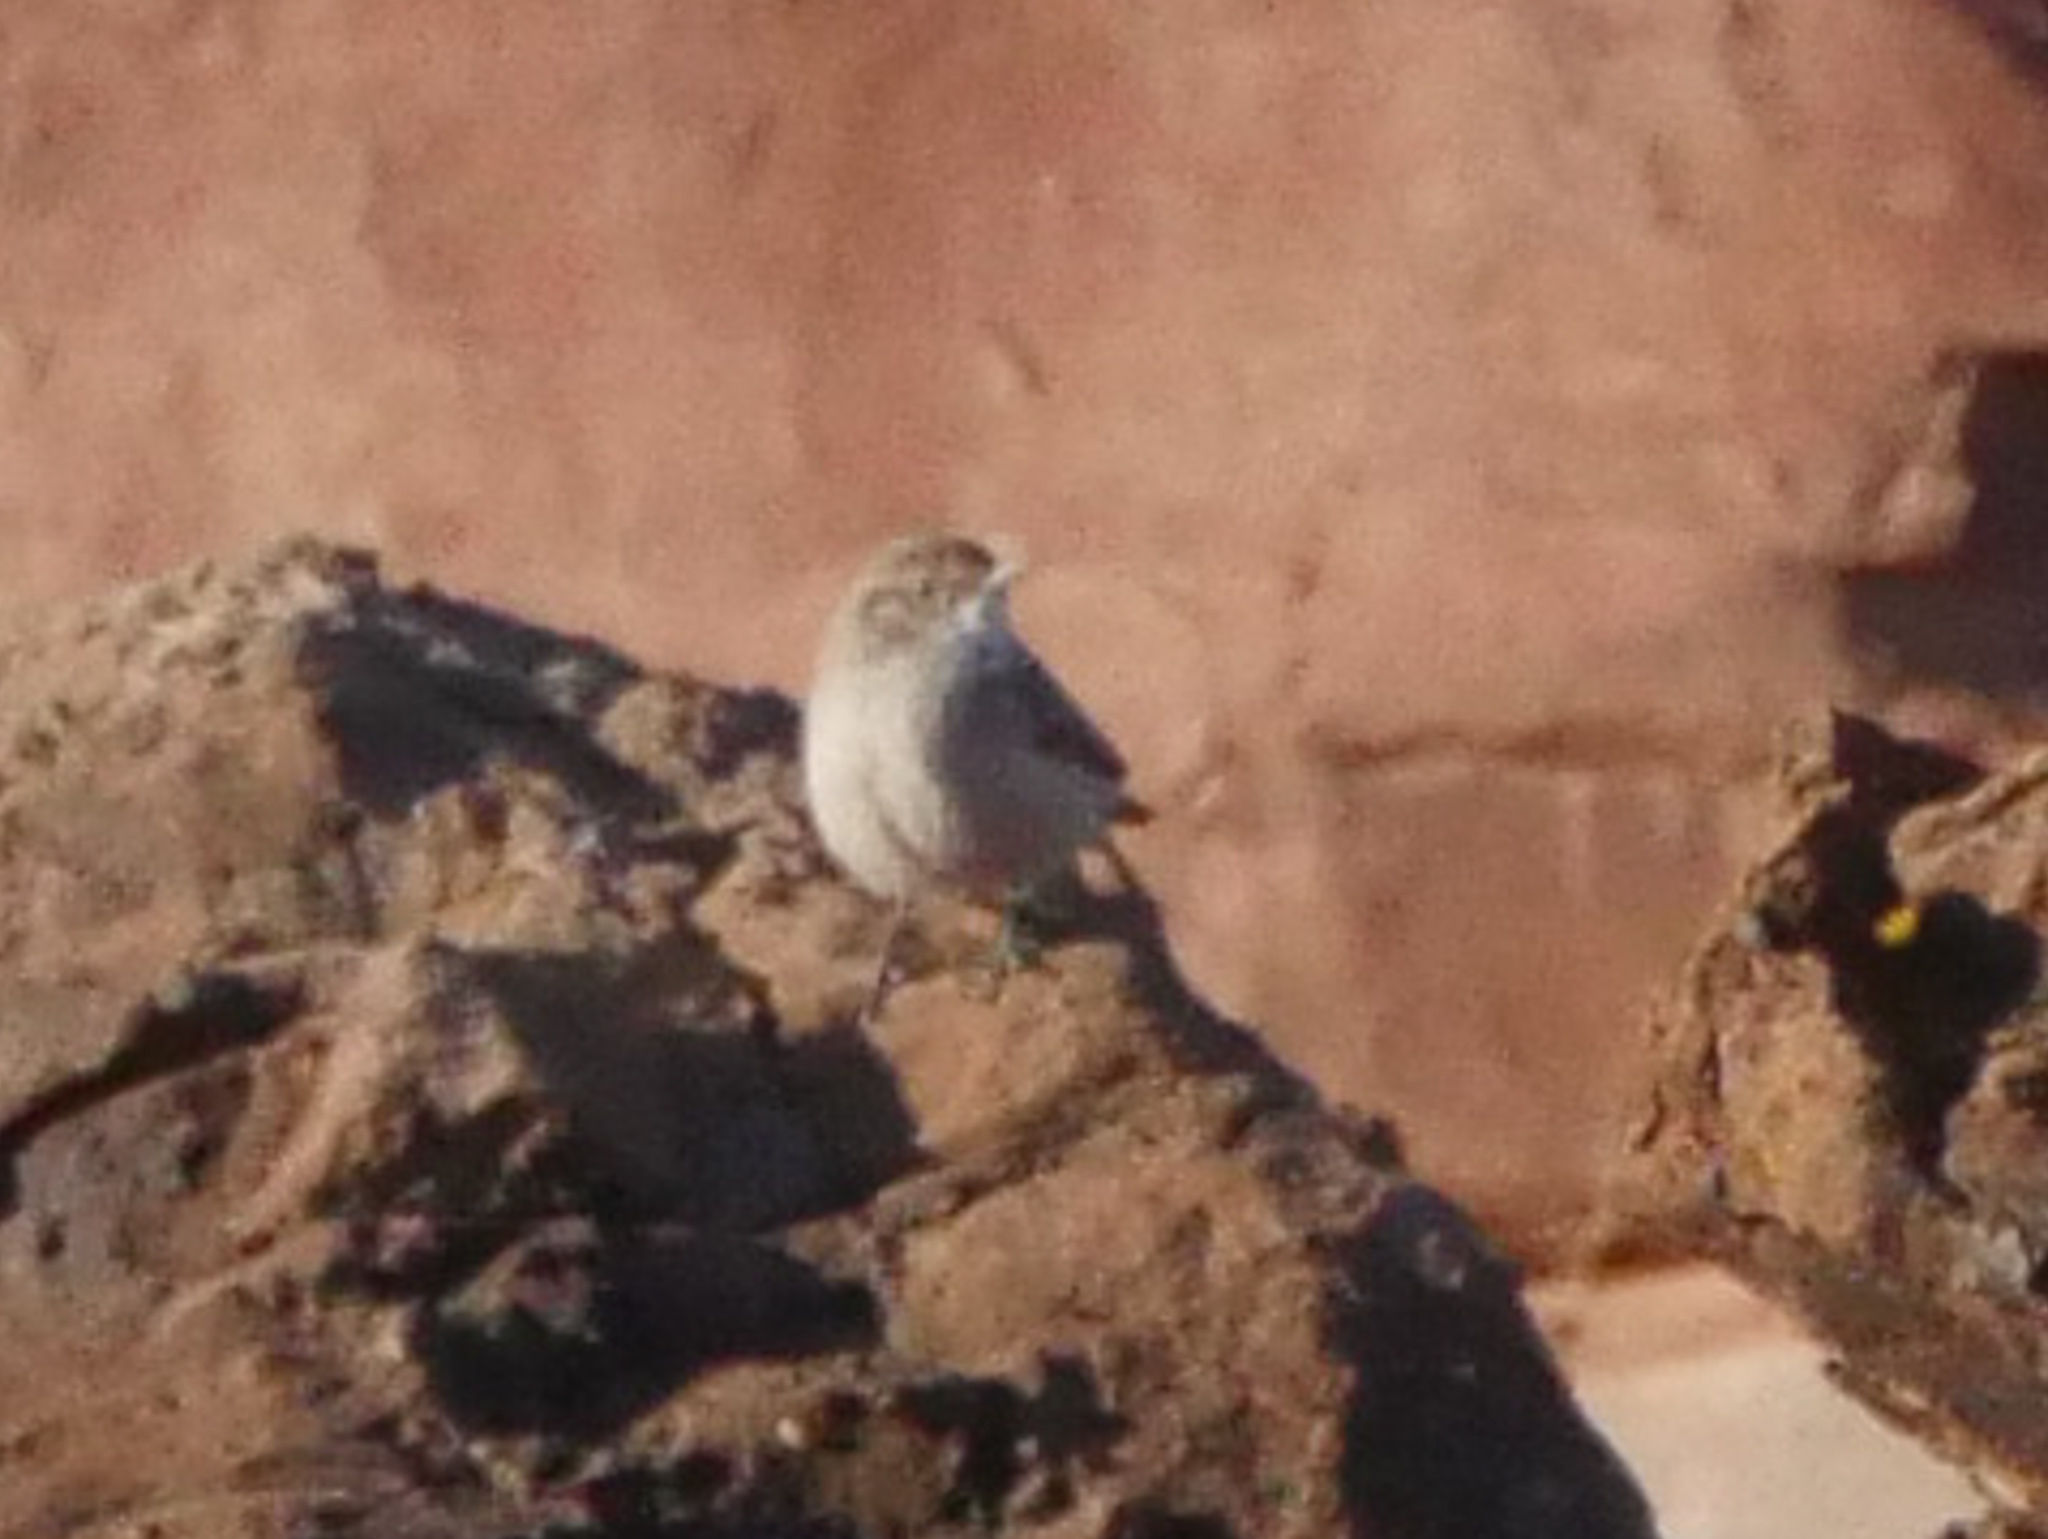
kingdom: Animalia
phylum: Chordata
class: Aves
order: Passeriformes
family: Troglodytidae
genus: Salpinctes
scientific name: Salpinctes obsoletus
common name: Rock wren
